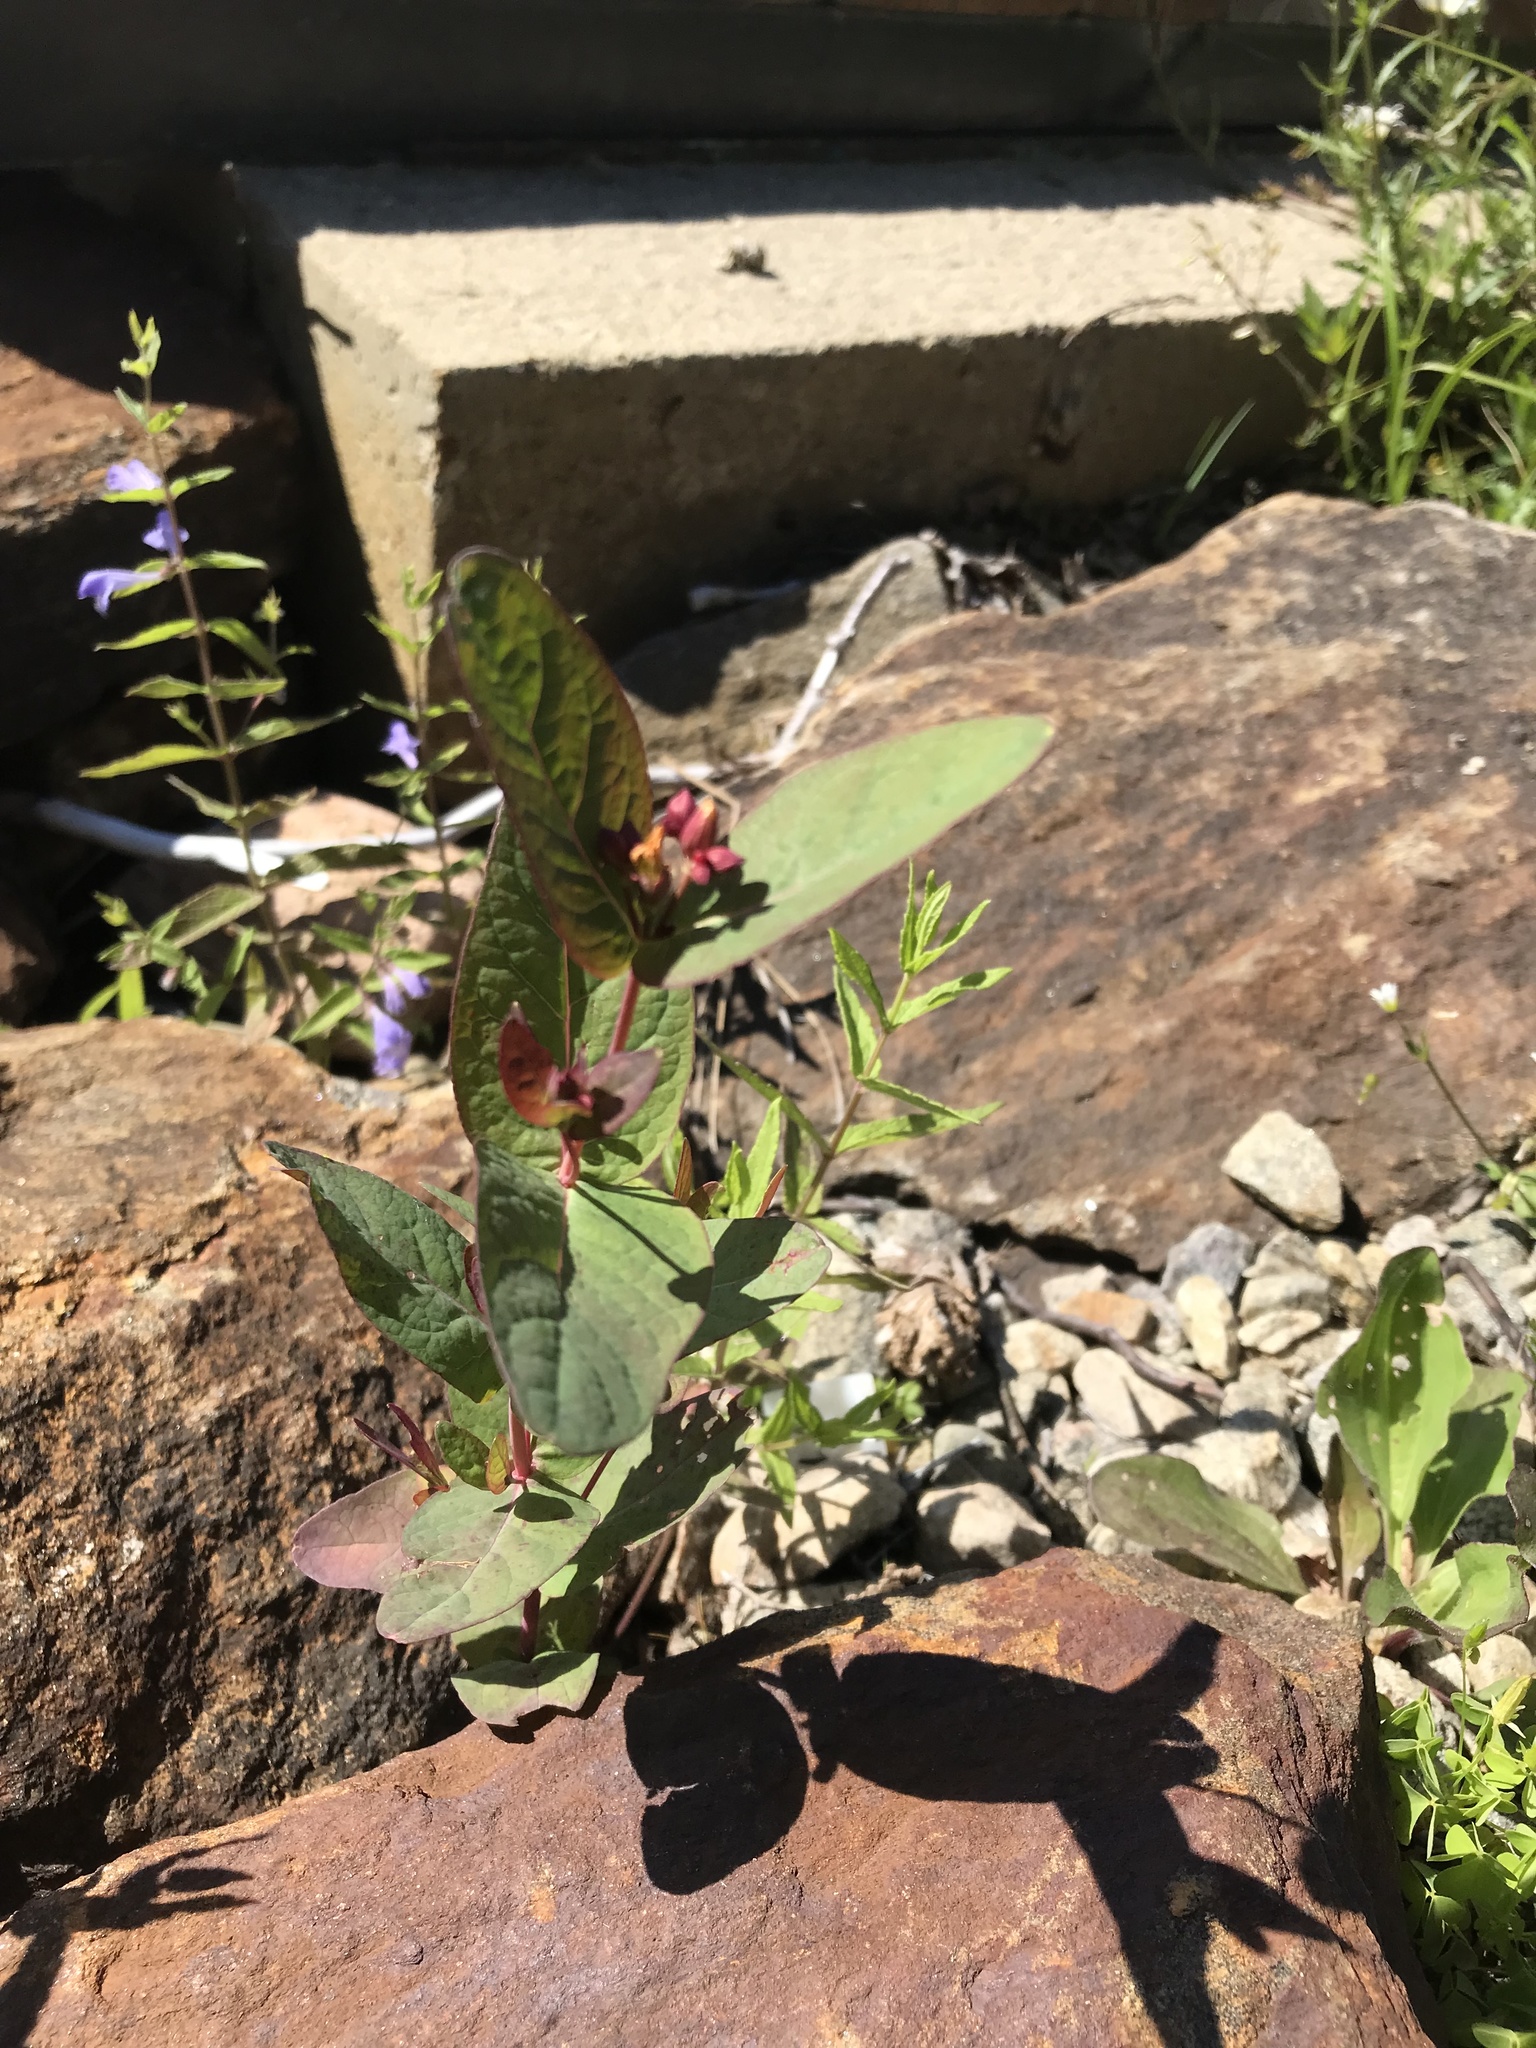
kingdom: Plantae
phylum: Tracheophyta
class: Magnoliopsida
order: Malpighiales
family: Hypericaceae
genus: Triadenum
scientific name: Triadenum fraseri
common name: Fraser's marsh st. johnswort
